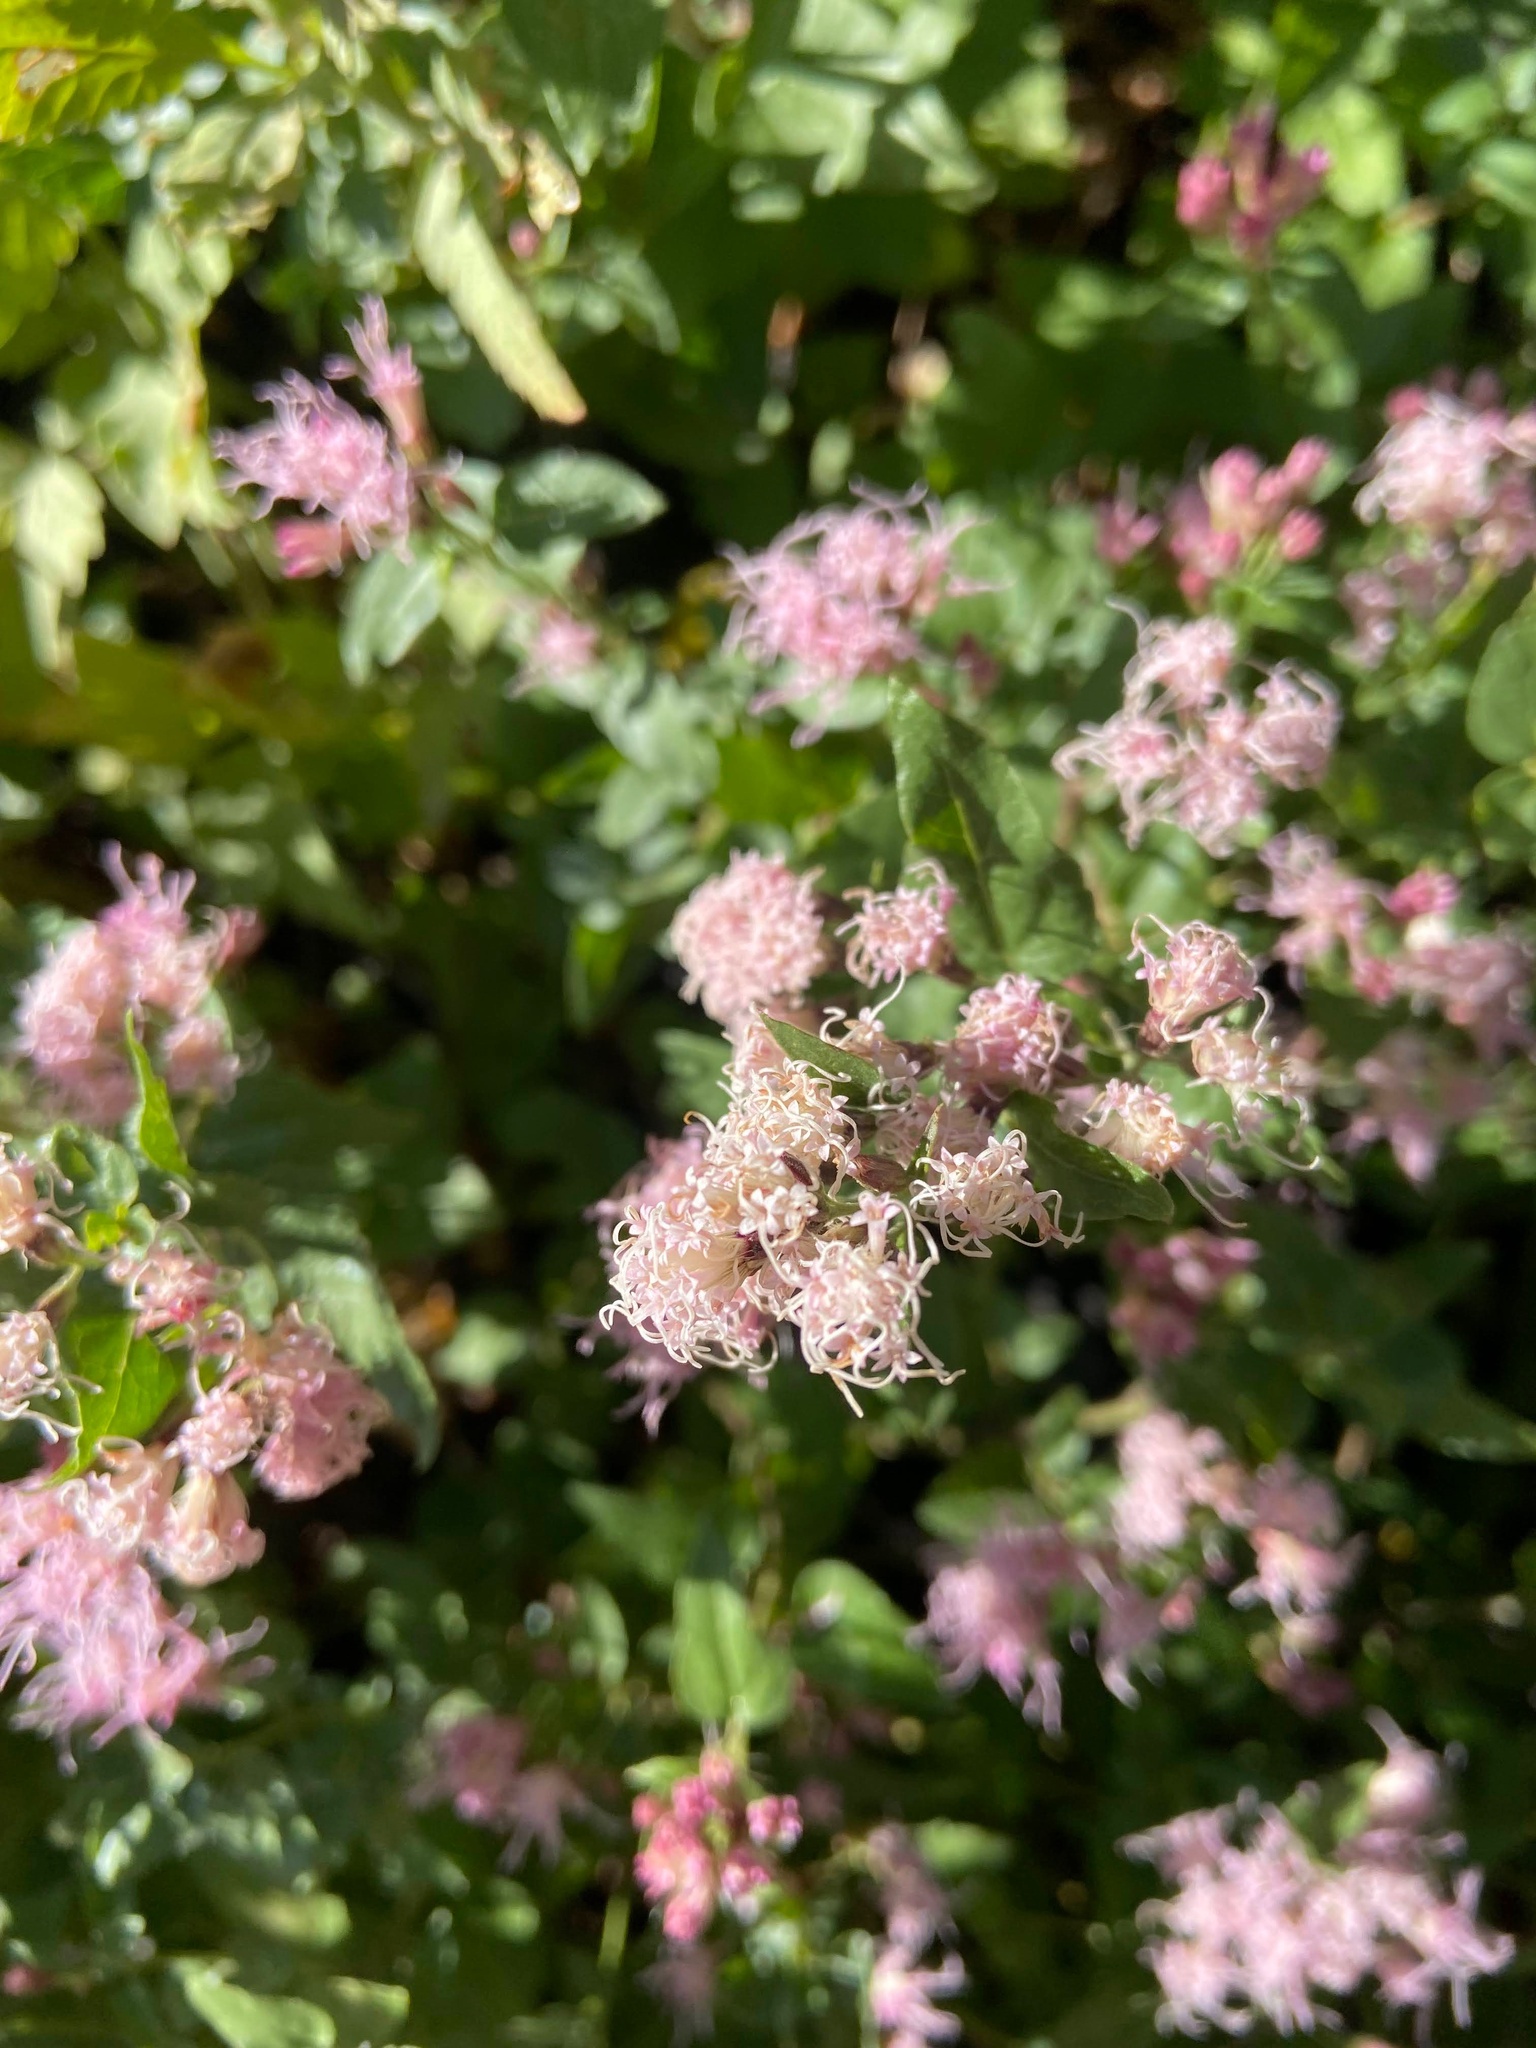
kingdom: Plantae
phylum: Tracheophyta
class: Magnoliopsida
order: Asterales
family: Asteraceae
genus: Ageratina
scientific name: Ageratina occidentalis
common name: Western snakeroot
